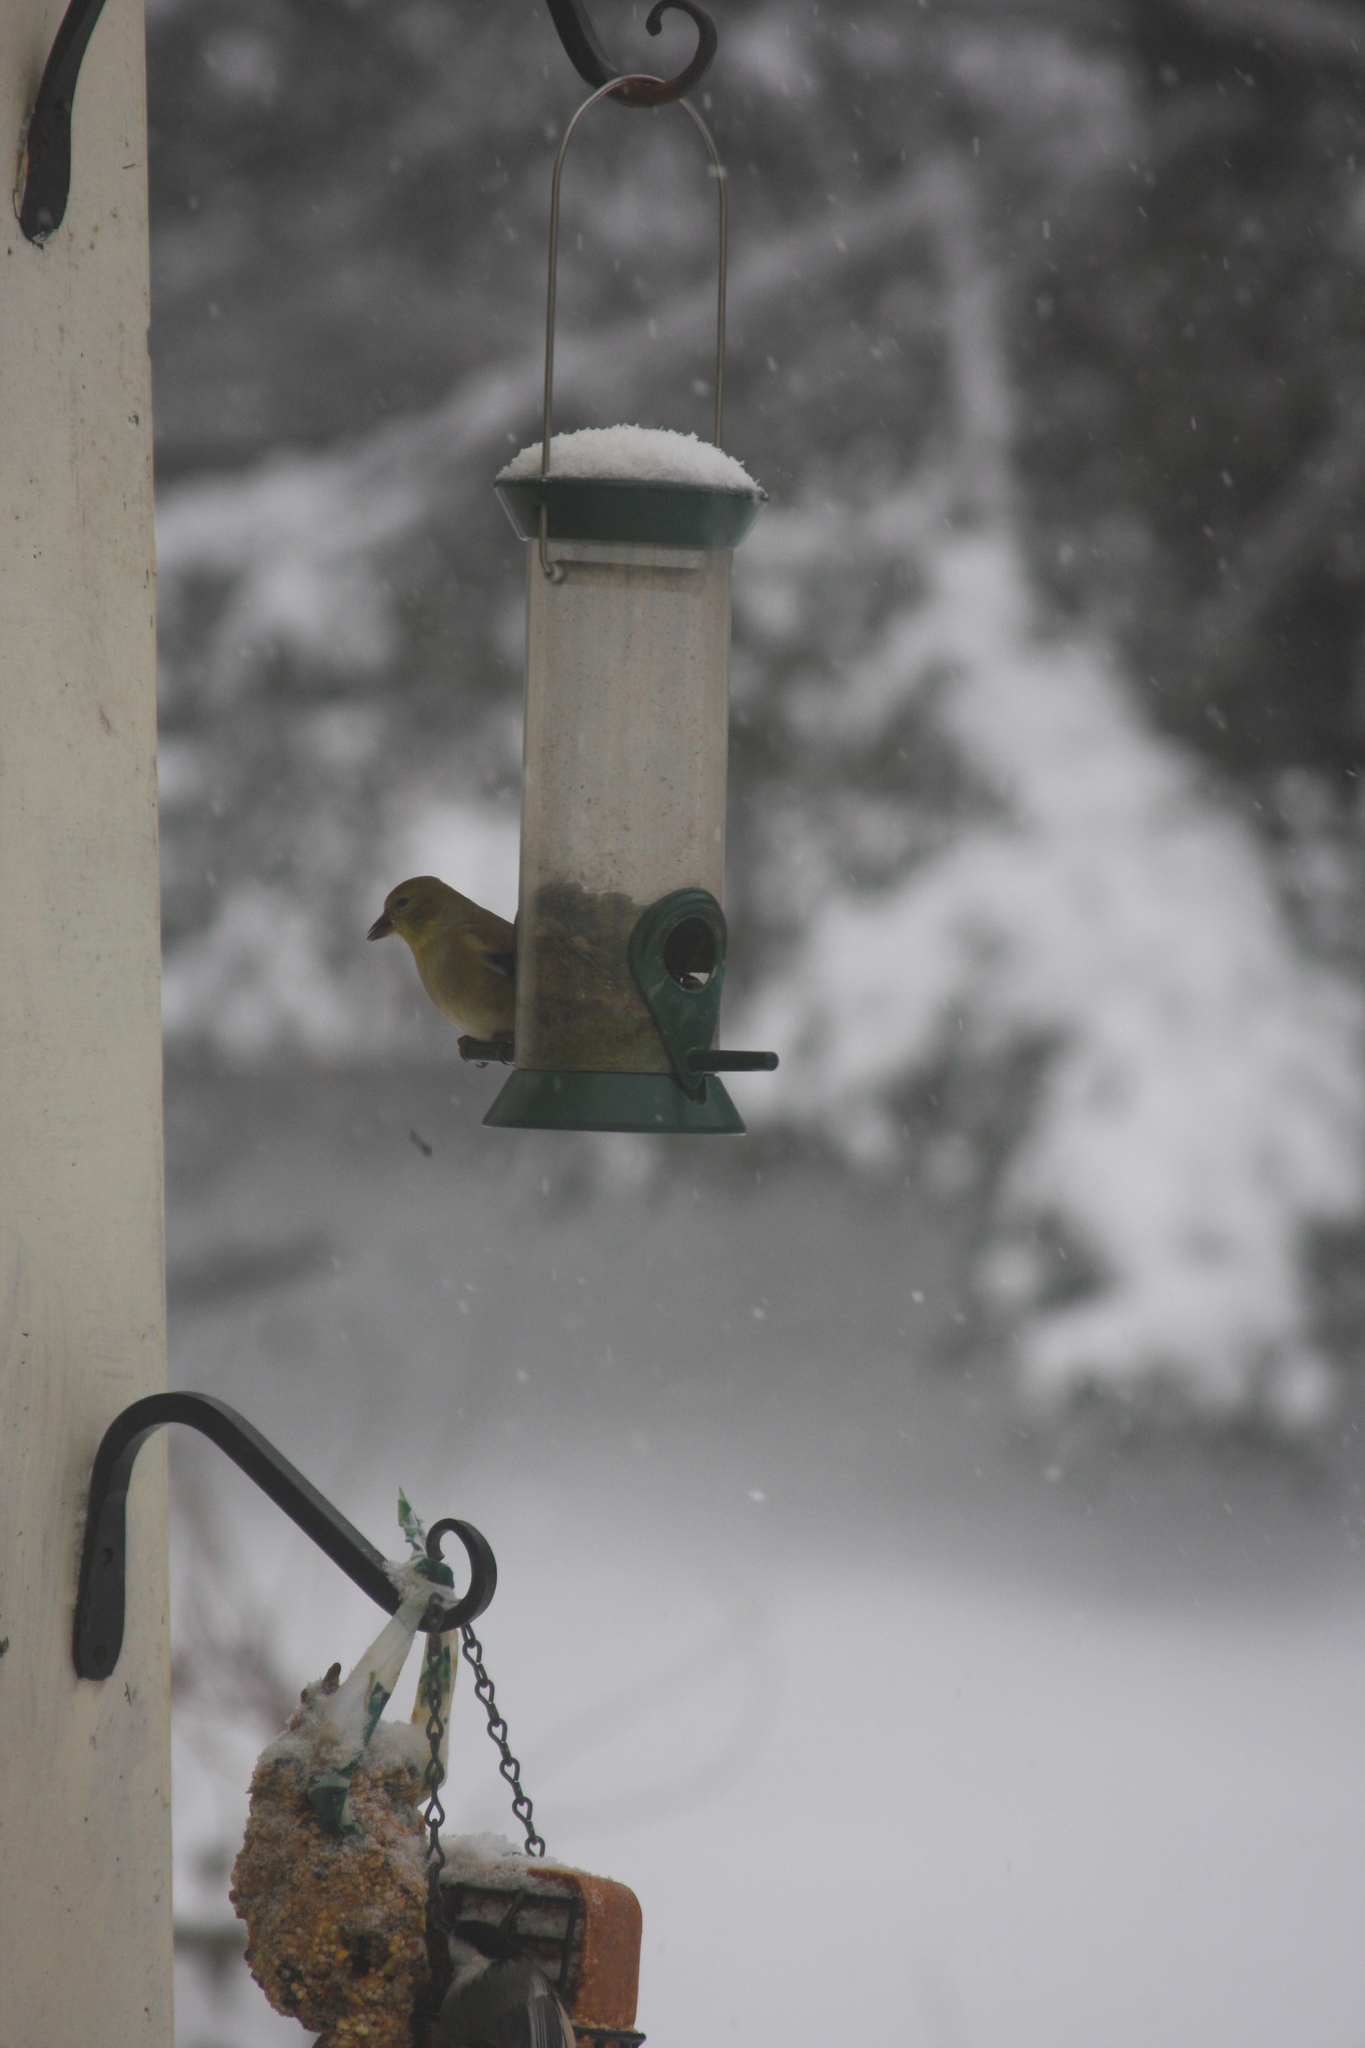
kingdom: Animalia
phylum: Chordata
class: Aves
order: Passeriformes
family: Fringillidae
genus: Spinus
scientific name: Spinus tristis
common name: American goldfinch
